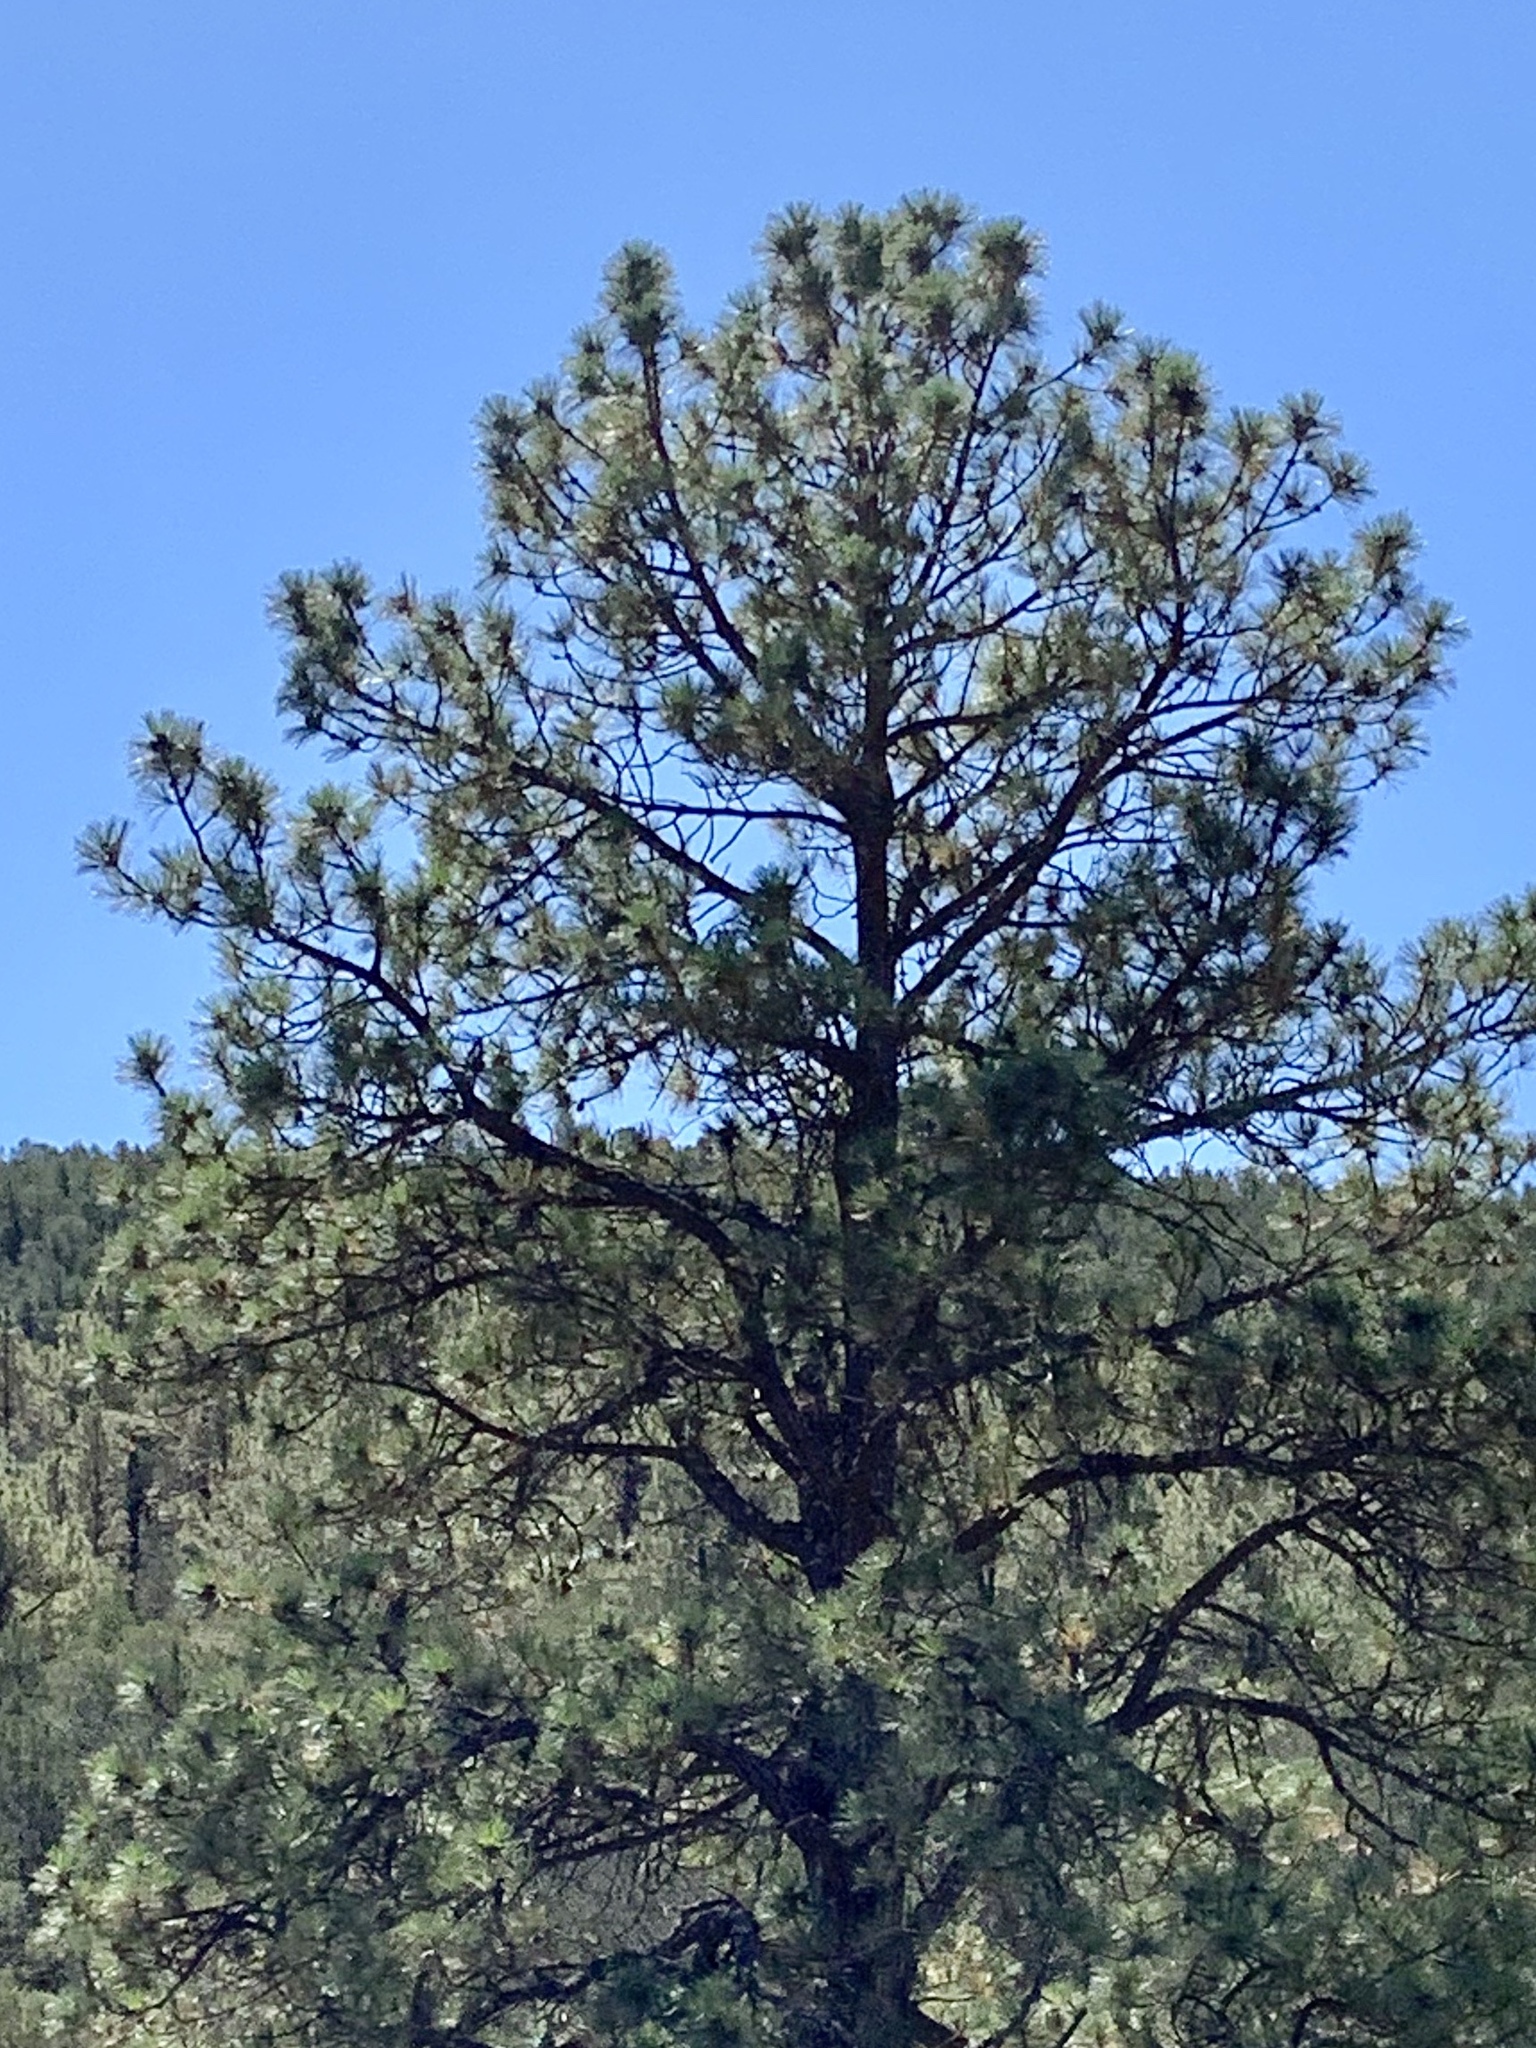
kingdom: Plantae
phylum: Tracheophyta
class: Pinopsida
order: Pinales
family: Pinaceae
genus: Pinus
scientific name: Pinus ponderosa
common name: Western yellow-pine
